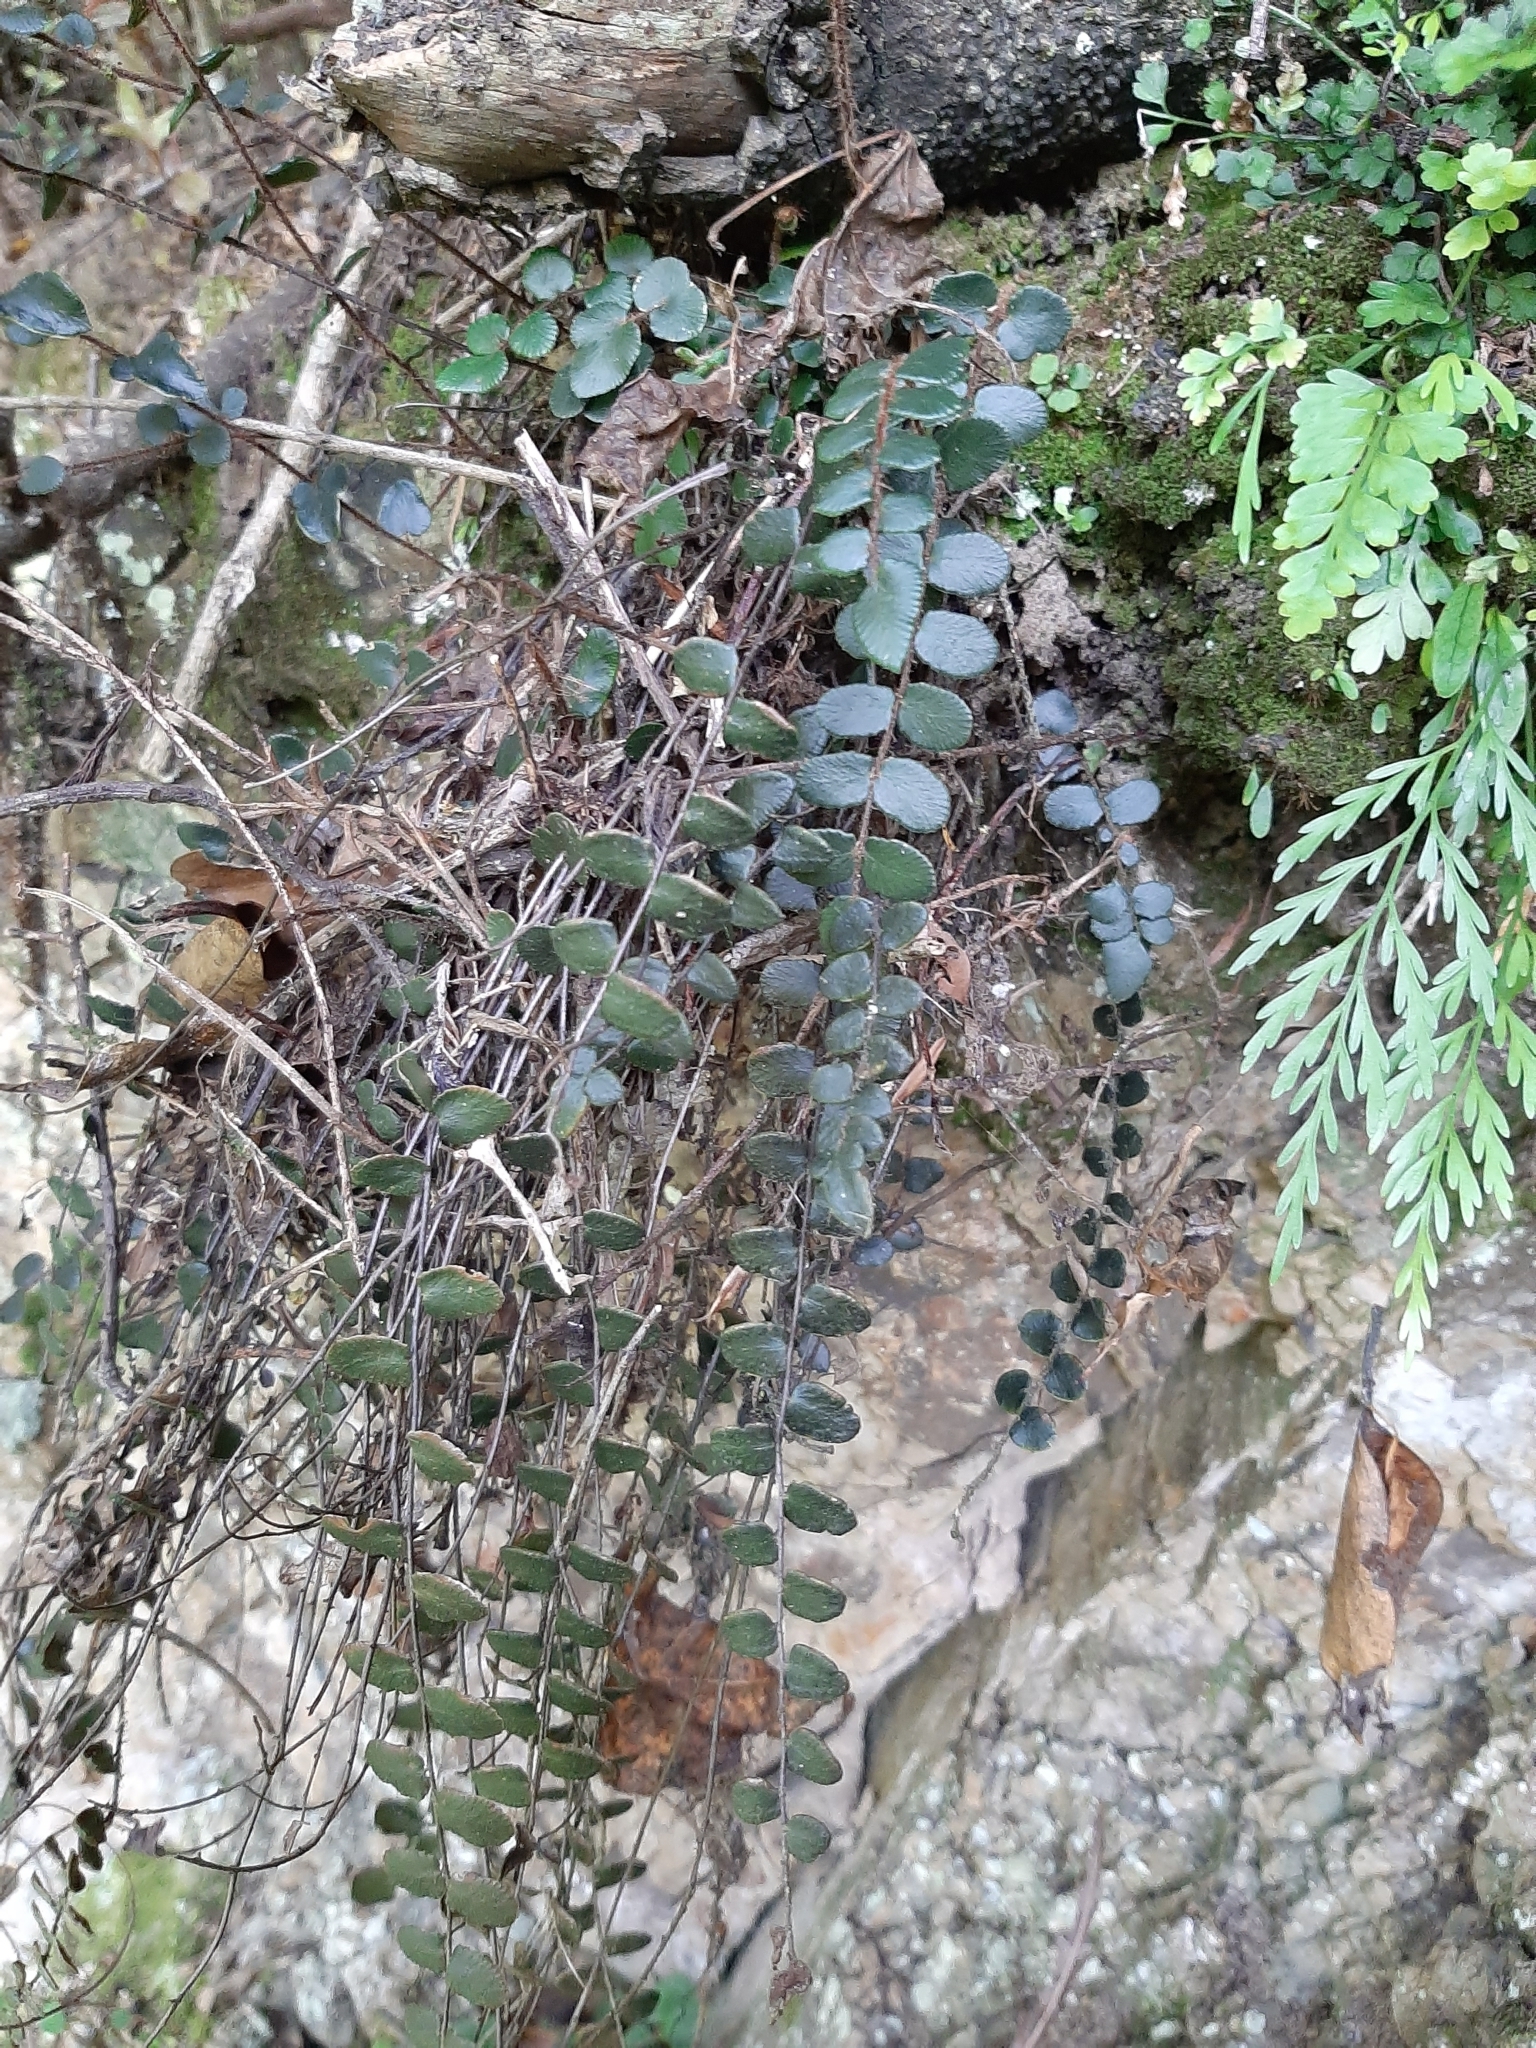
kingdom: Plantae
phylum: Tracheophyta
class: Polypodiopsida
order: Polypodiales
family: Pteridaceae
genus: Pellaea
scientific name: Pellaea rotundifolia
